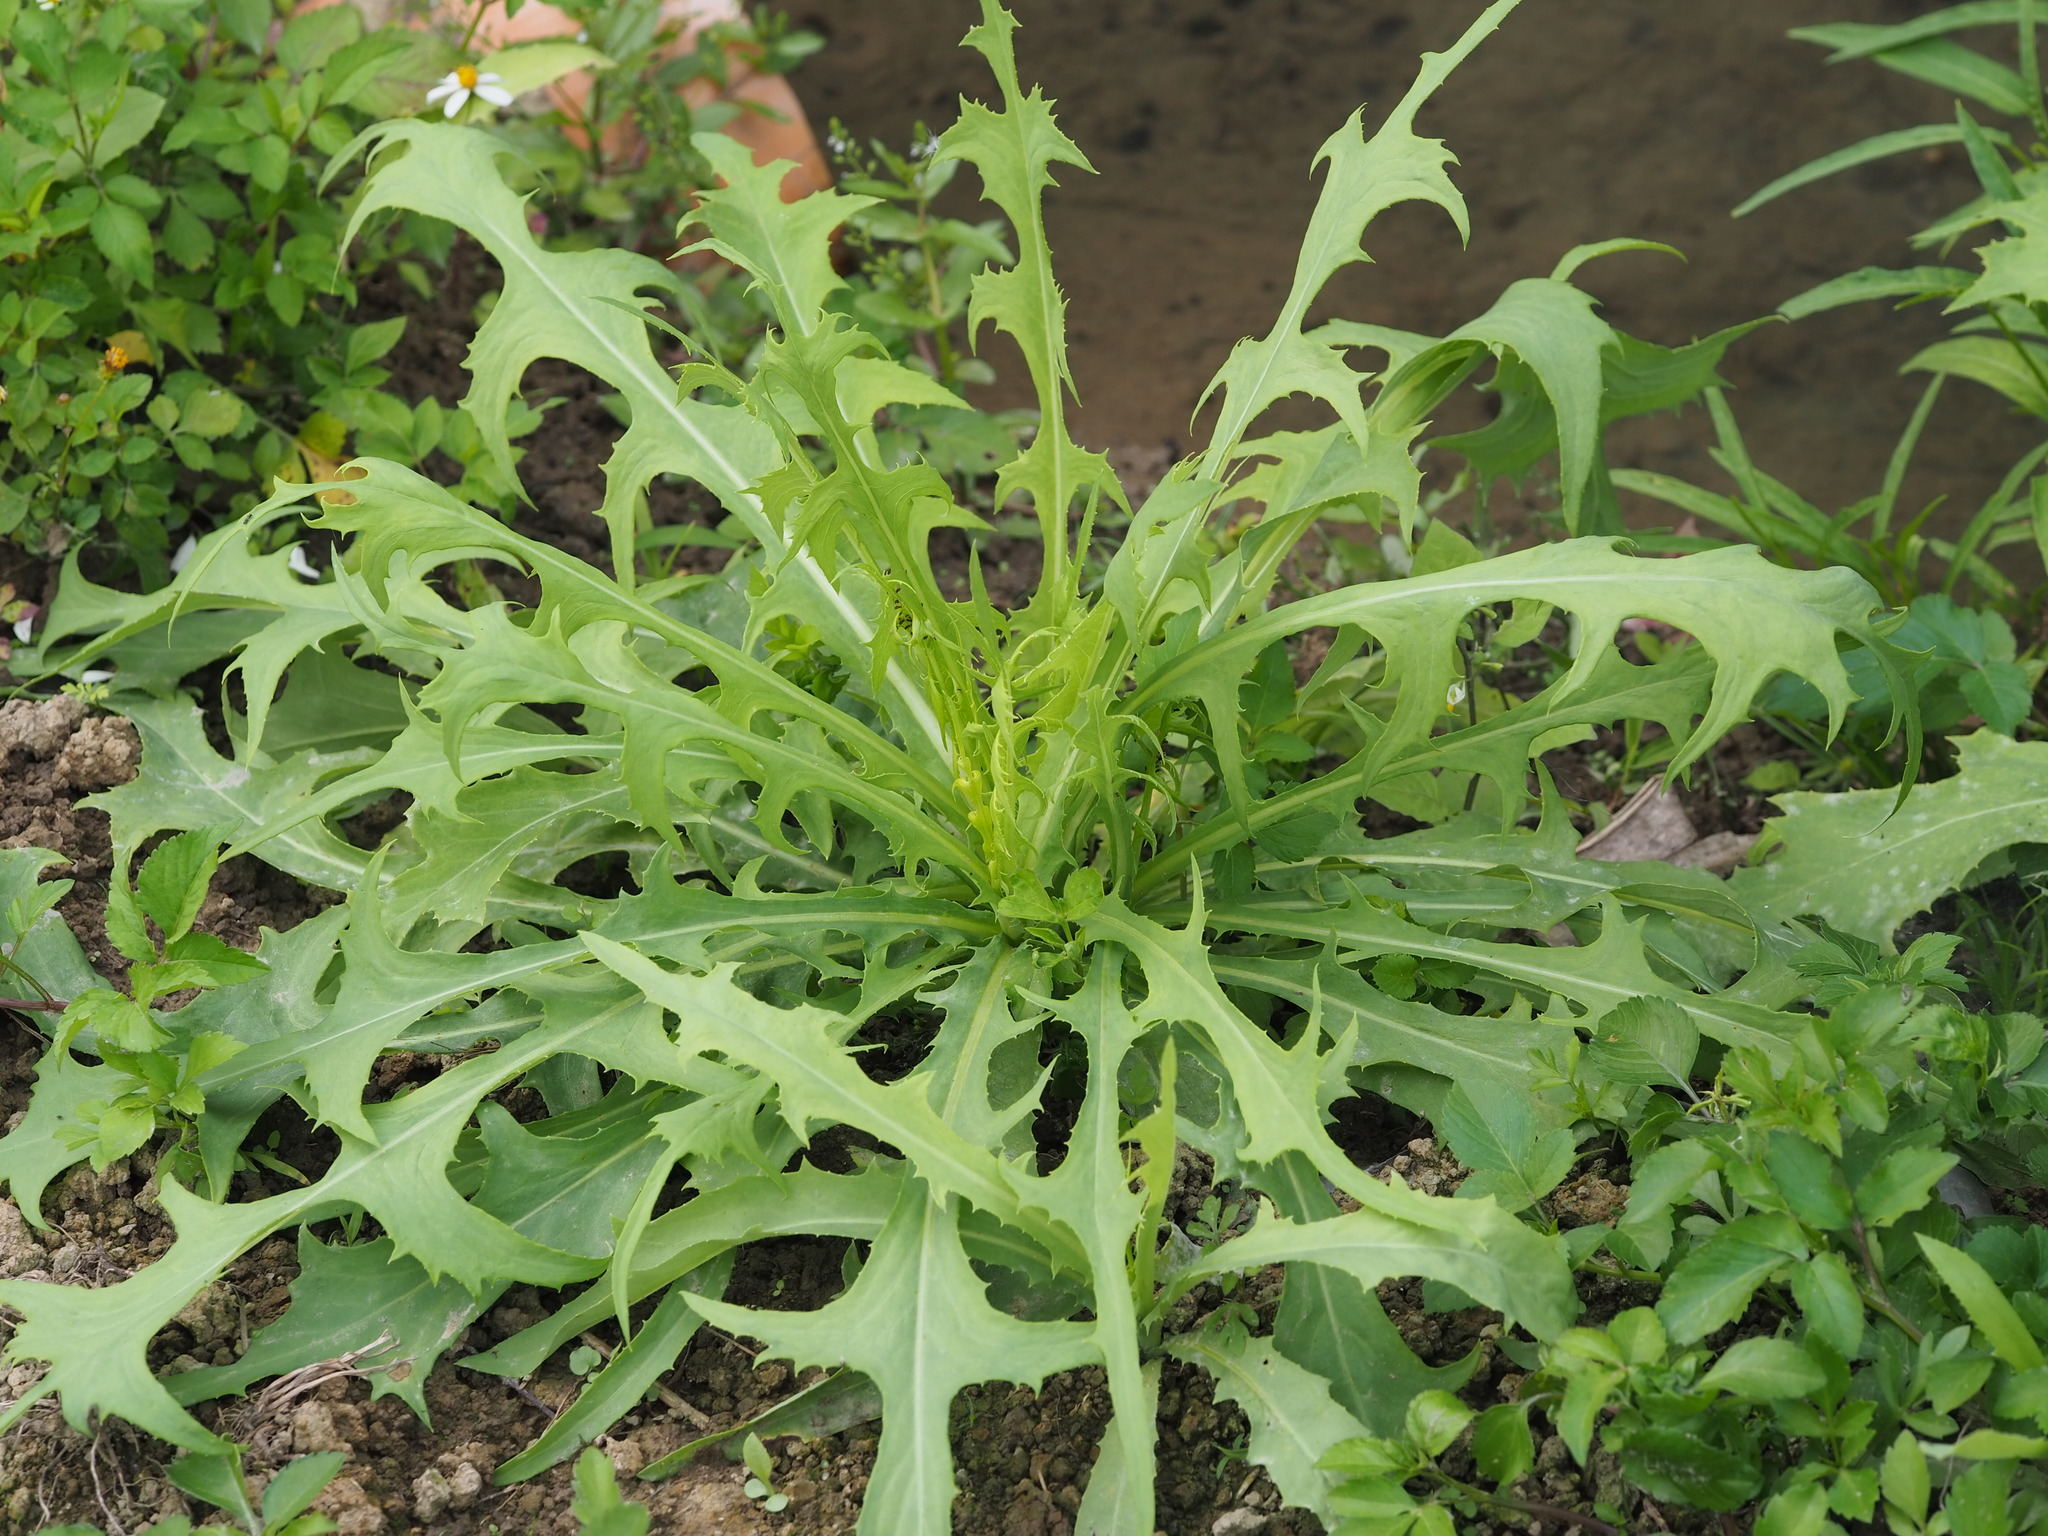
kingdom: Plantae
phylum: Tracheophyta
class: Magnoliopsida
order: Asterales
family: Asteraceae
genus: Lactuca
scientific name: Lactuca indica
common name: Wild lettuce
